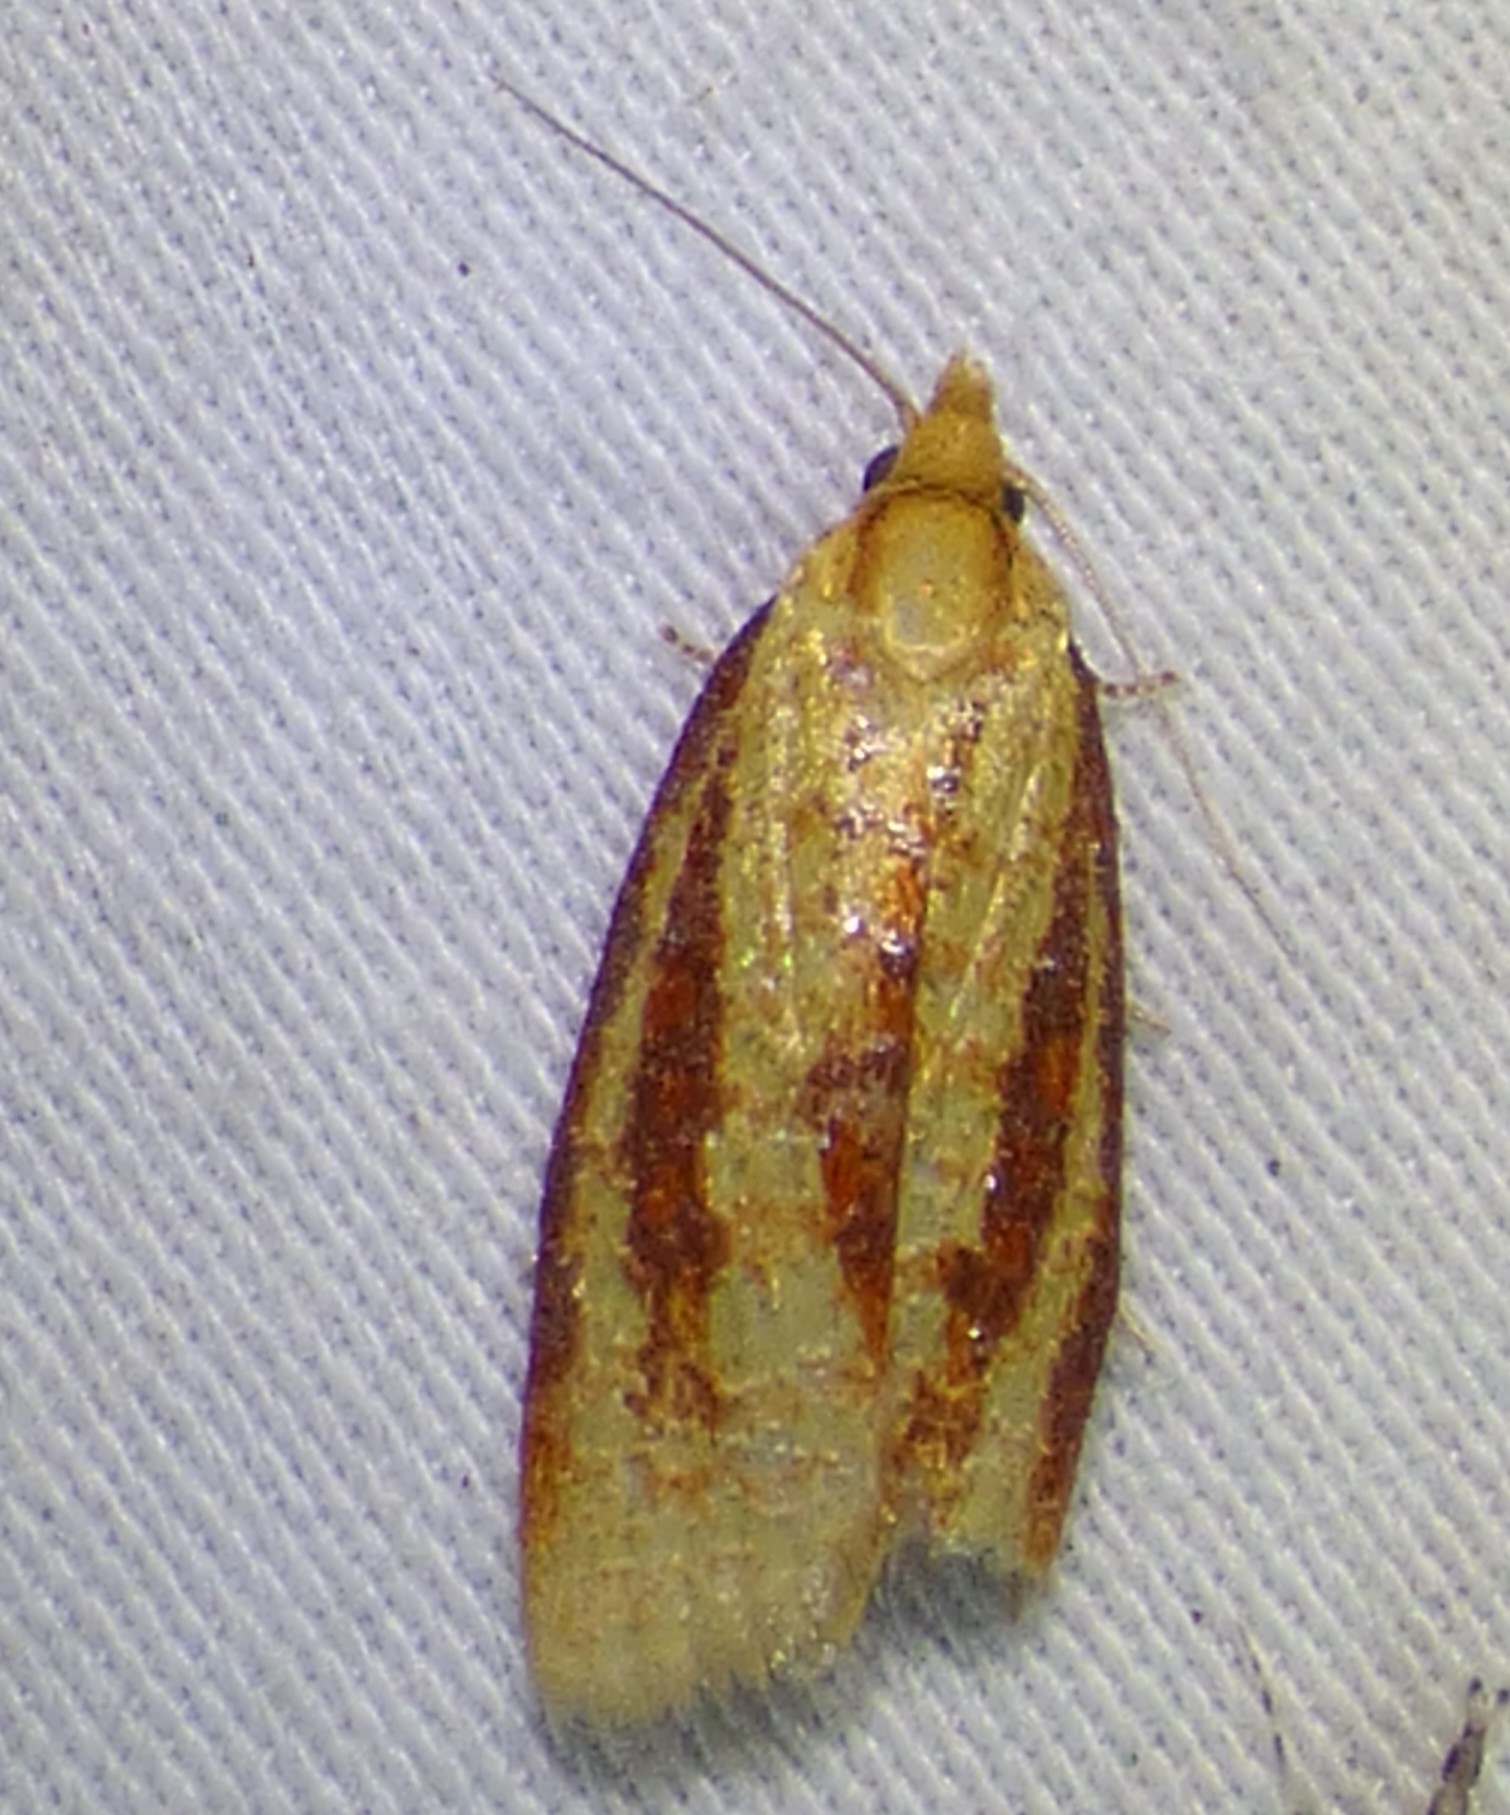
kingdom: Animalia
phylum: Arthropoda
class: Insecta
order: Lepidoptera
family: Tortricidae
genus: Sparganothis
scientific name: Sparganothis bistriata
